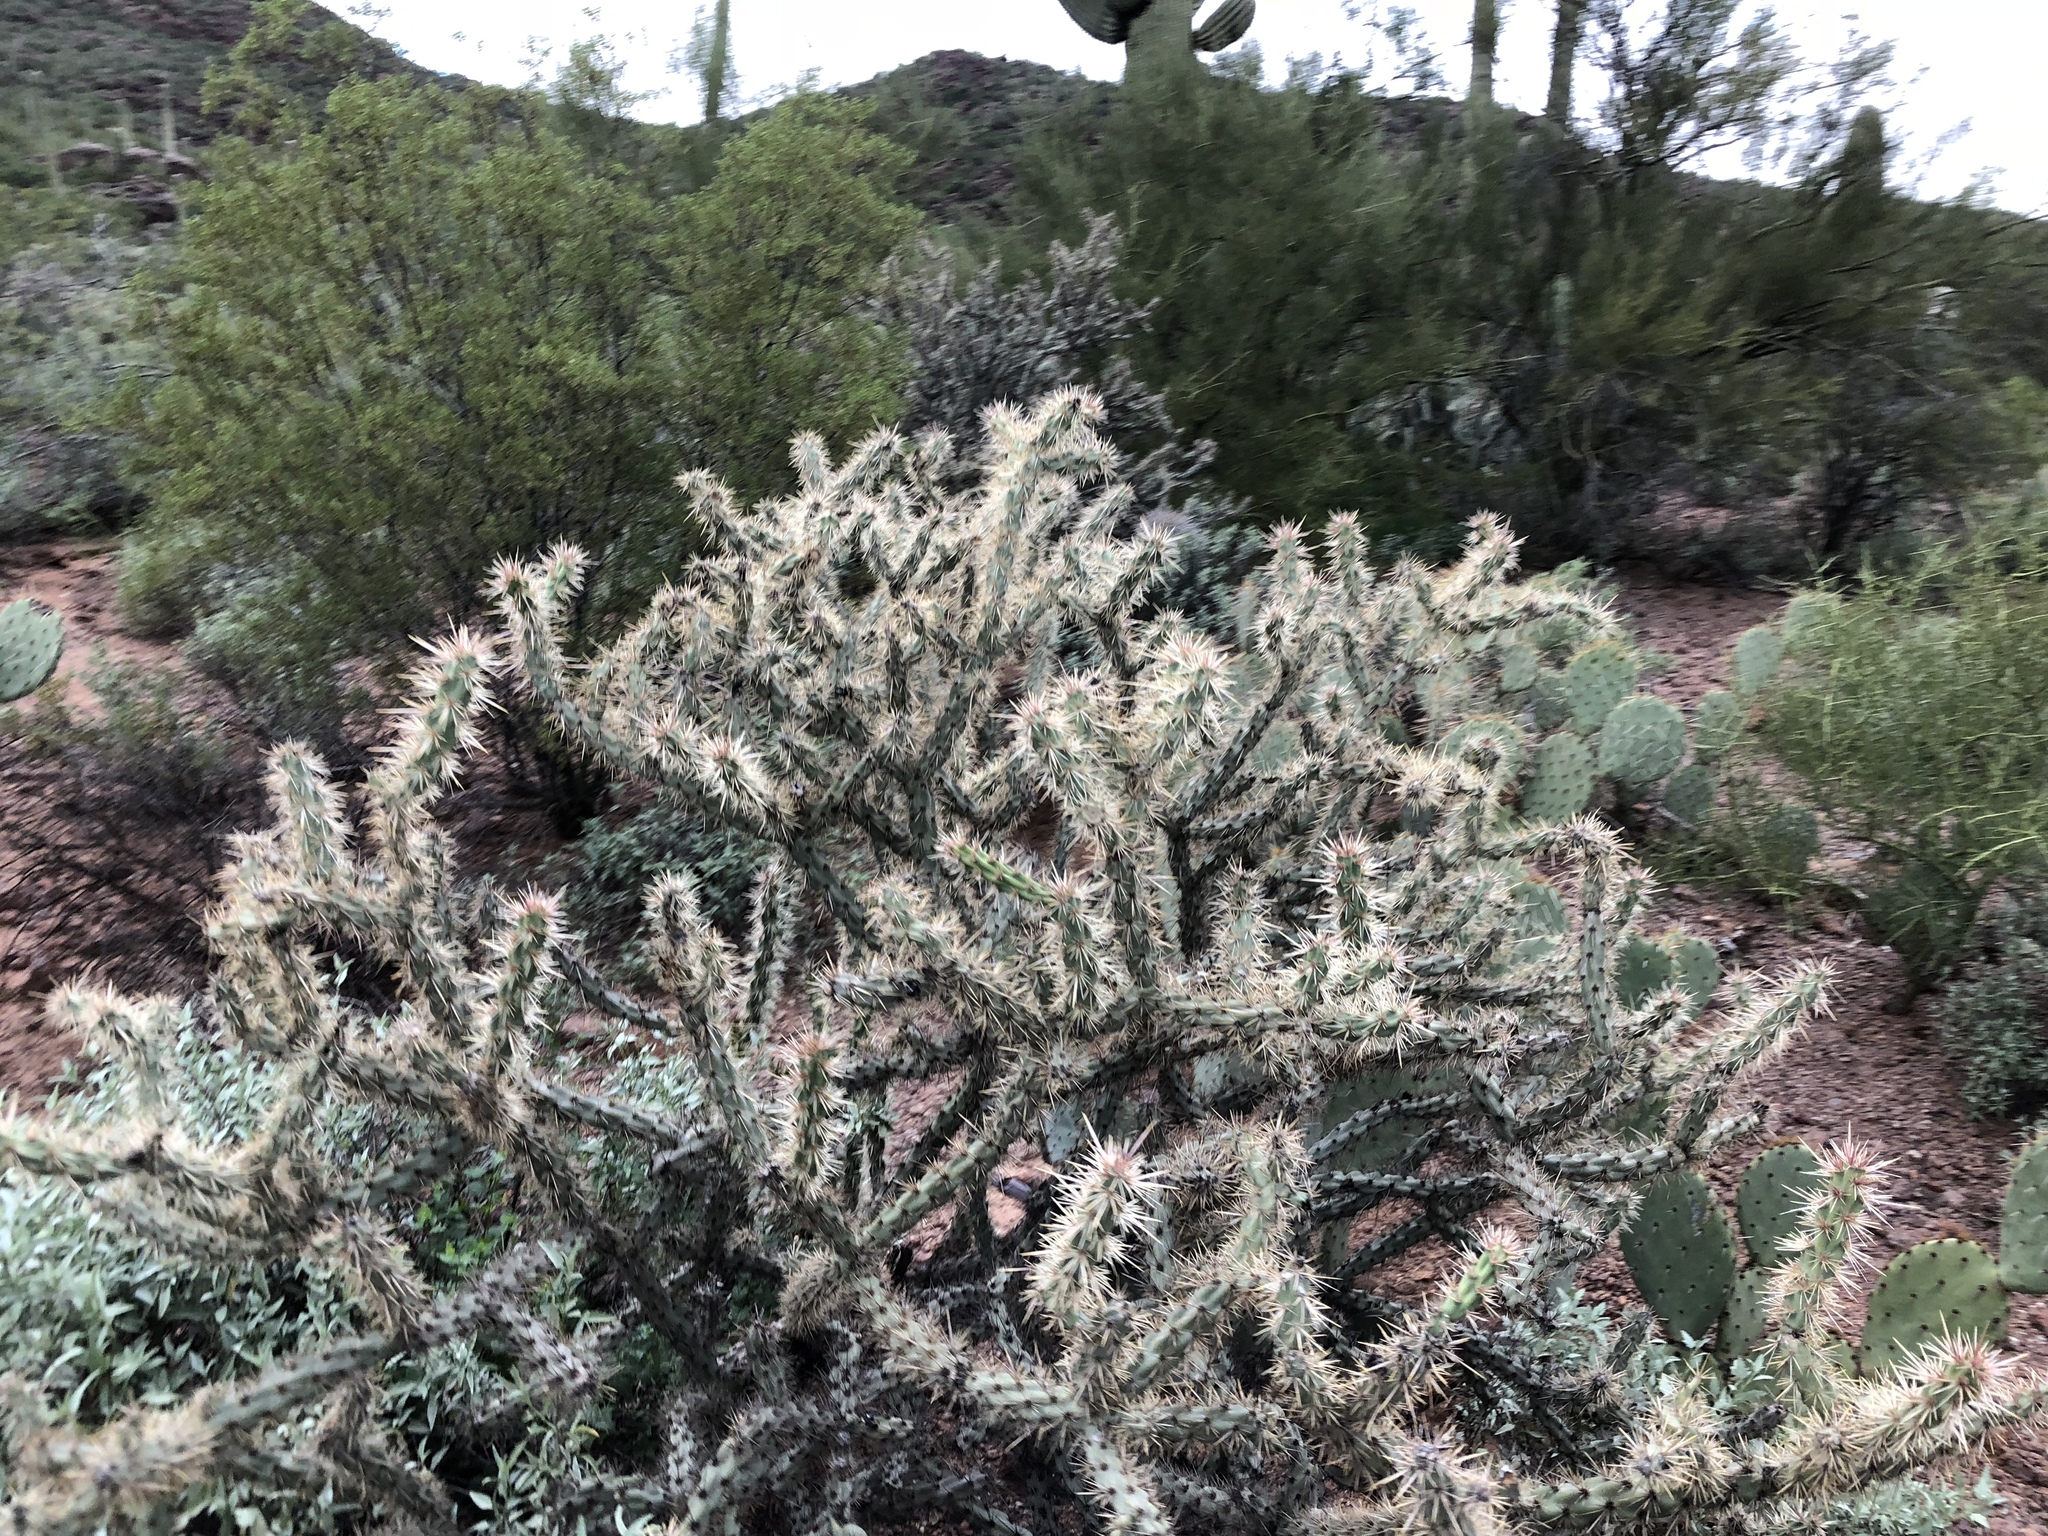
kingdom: Plantae
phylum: Tracheophyta
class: Magnoliopsida
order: Caryophyllales
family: Cactaceae
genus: Cylindropuntia
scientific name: Cylindropuntia acanthocarpa
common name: Buckhorn cholla
